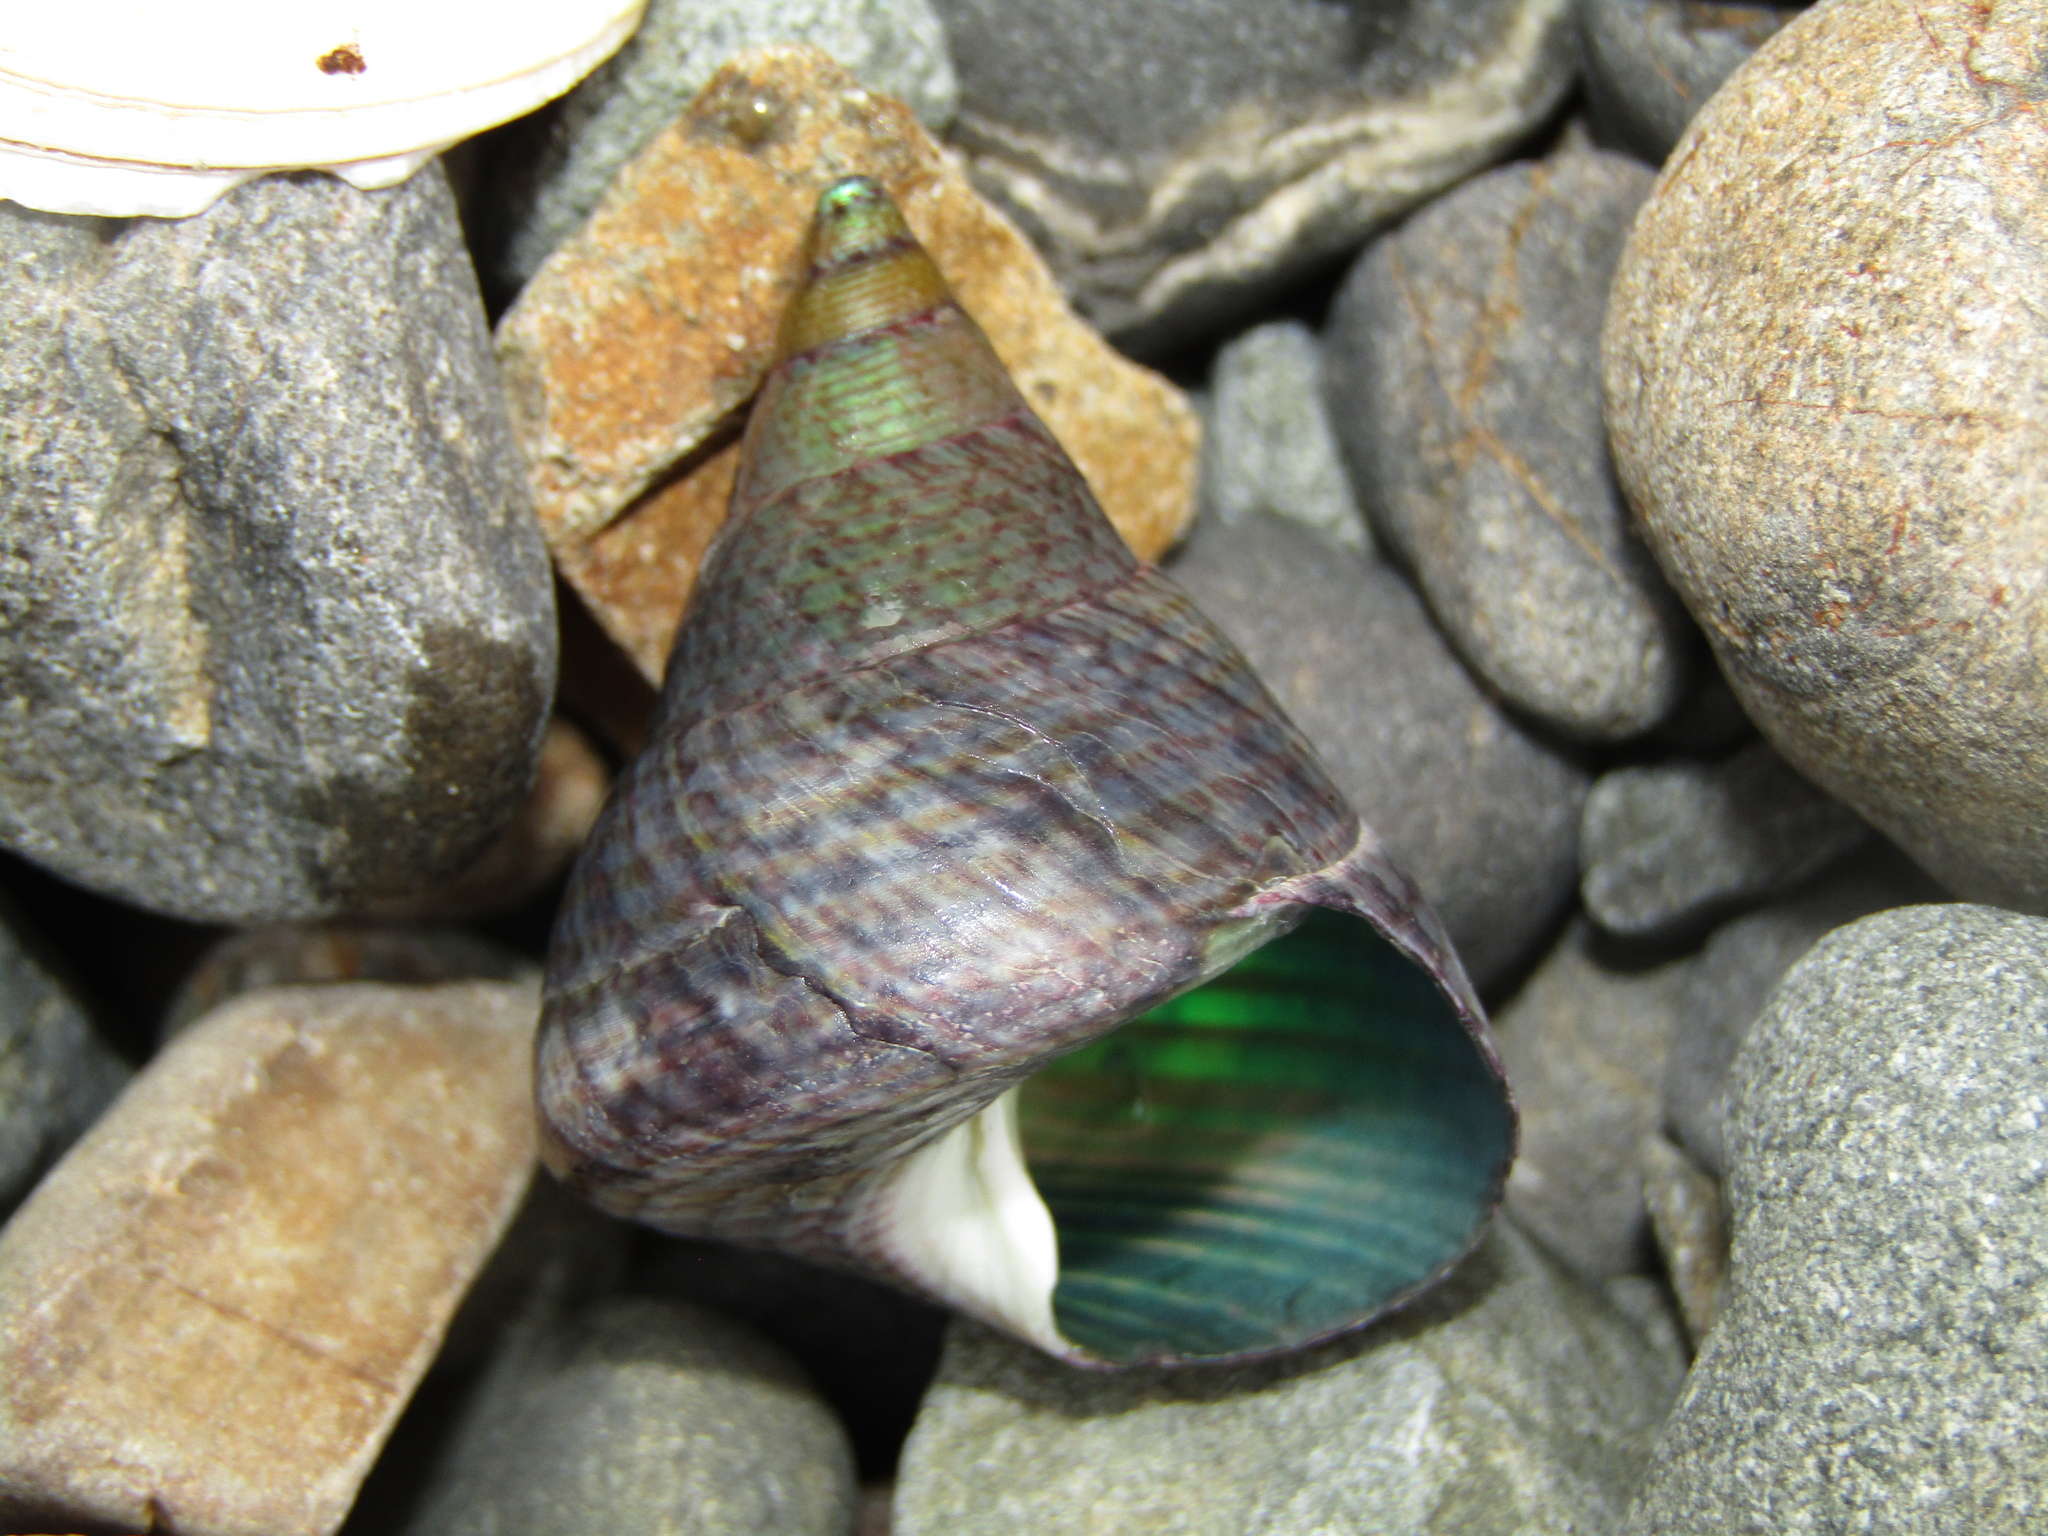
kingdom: Animalia
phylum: Mollusca
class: Gastropoda
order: Trochida
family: Trochidae
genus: Cantharidus
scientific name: Cantharidus opalus
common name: Opal jewel topsnail
